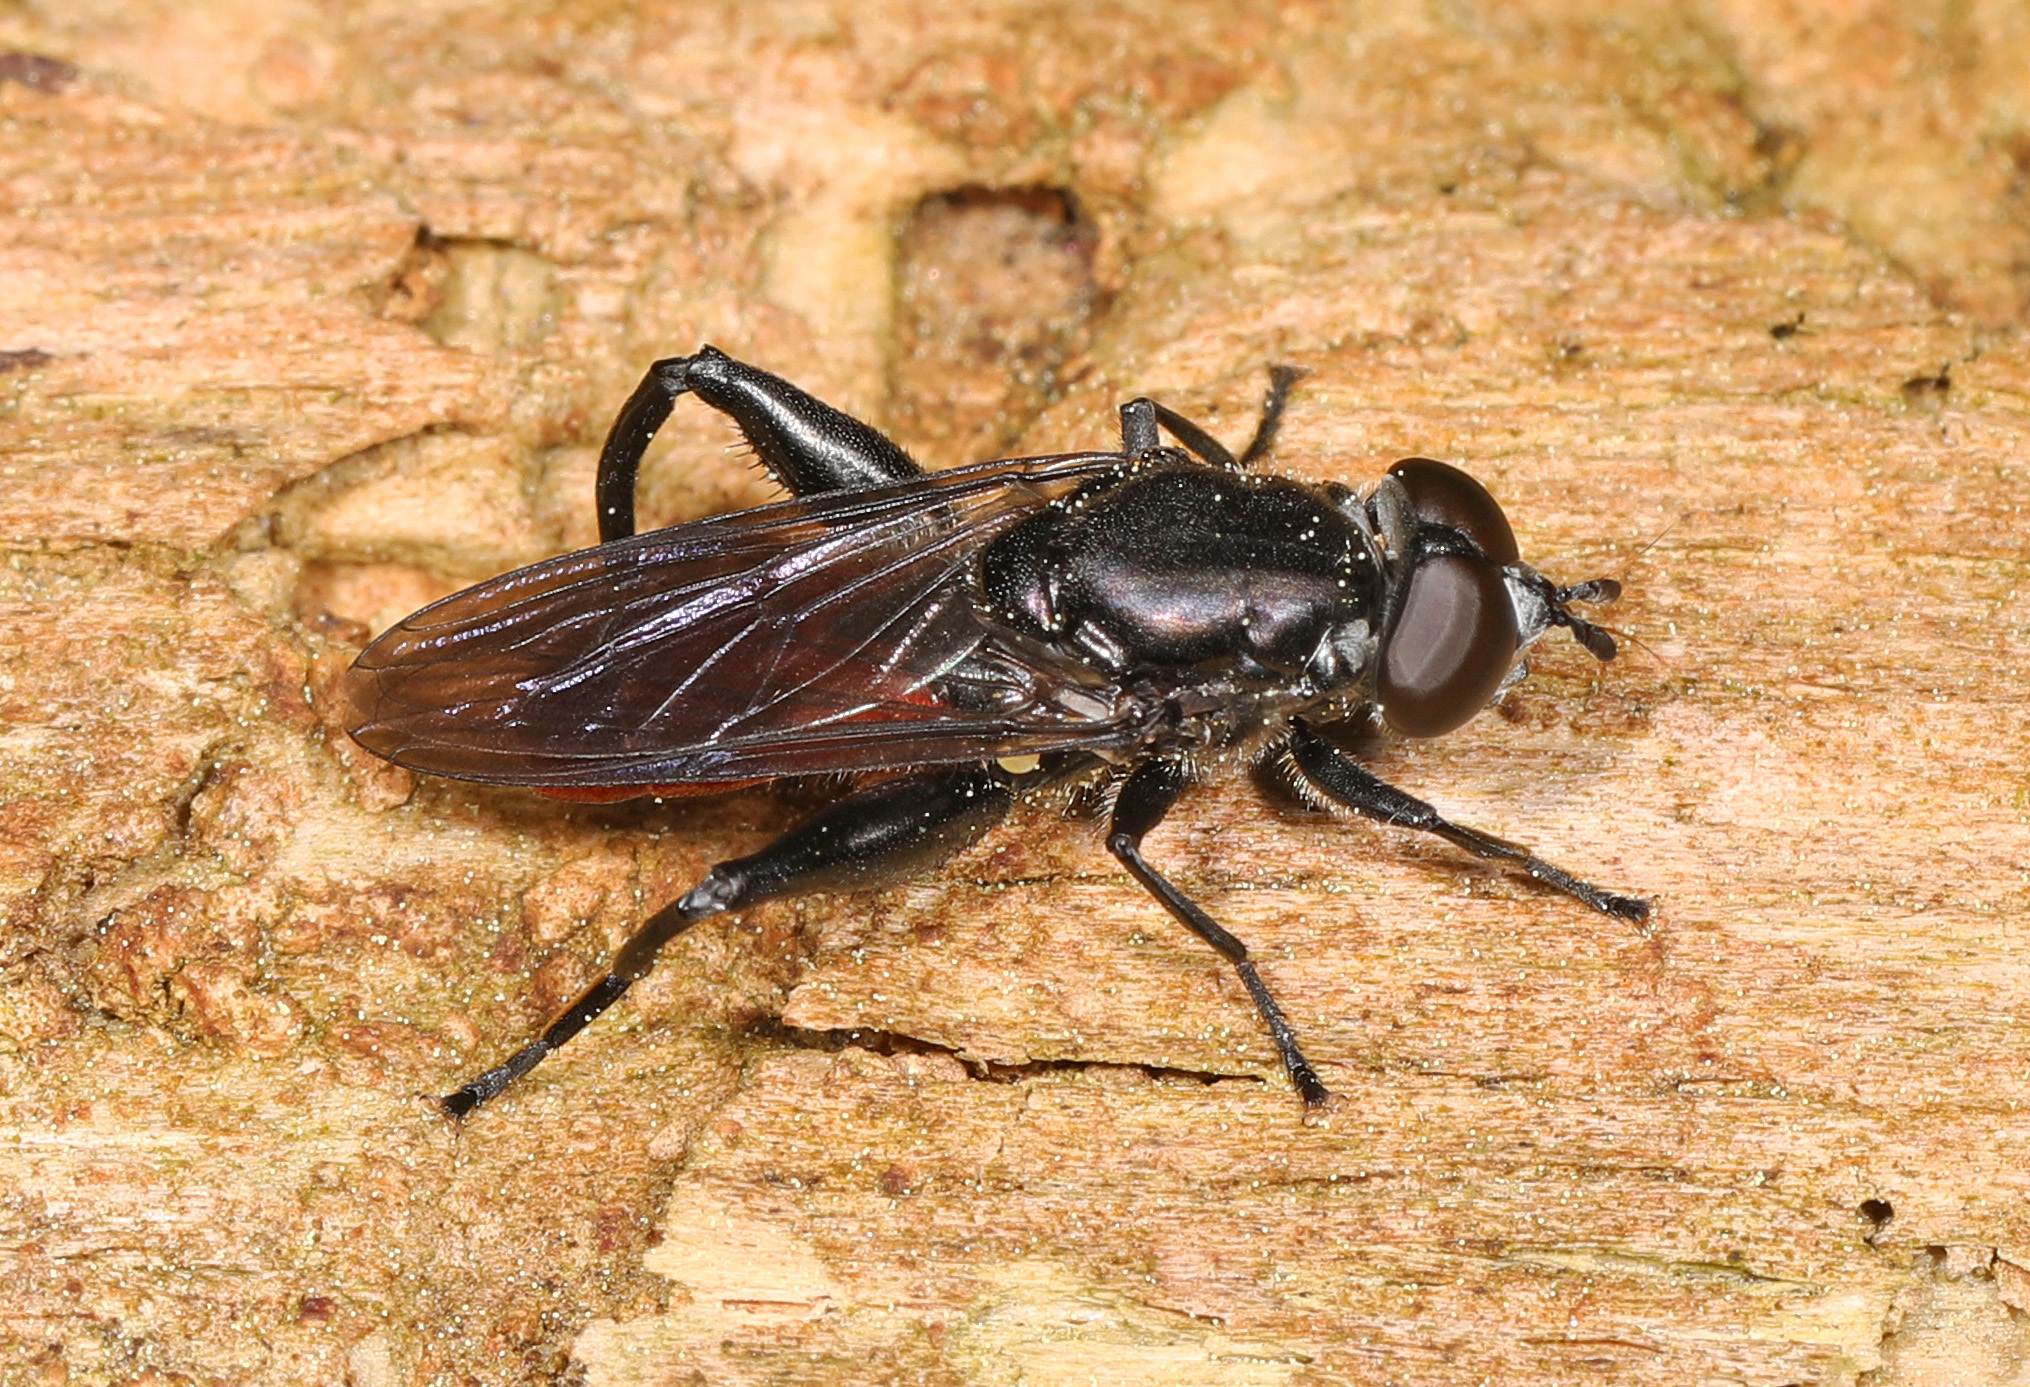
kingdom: Animalia
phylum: Arthropoda
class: Insecta
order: Diptera
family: Syrphidae
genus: Chalcosyrphus
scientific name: Chalcosyrphus piger
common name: Short-haired leafwalker
